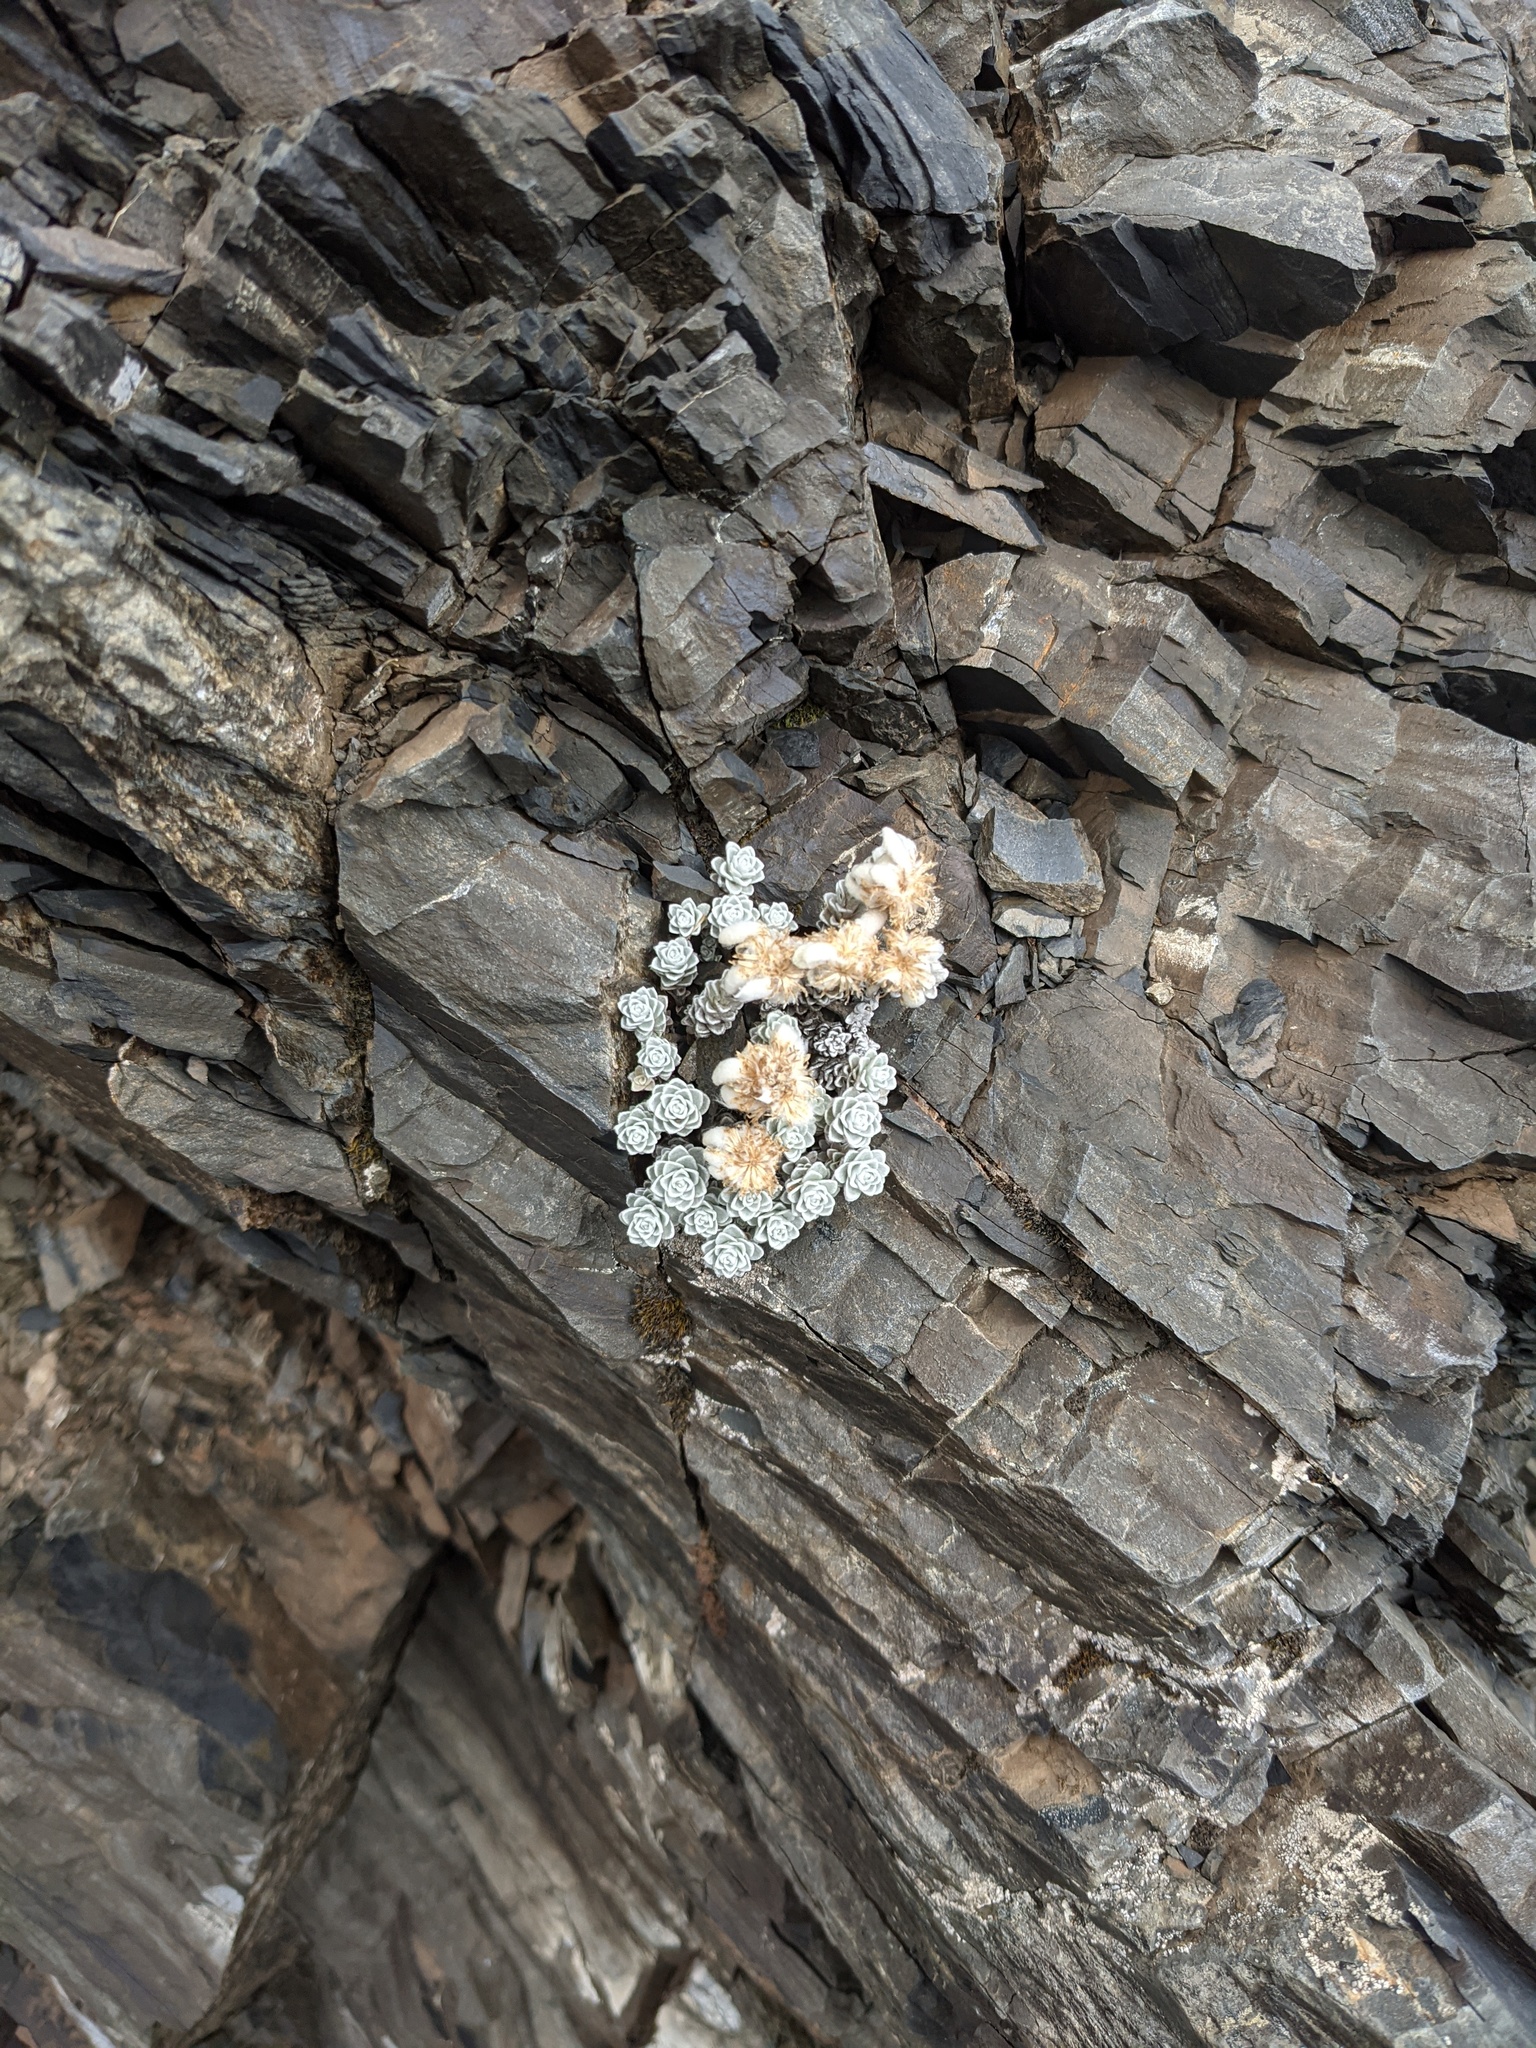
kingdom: Plantae
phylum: Tracheophyta
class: Magnoliopsida
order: Asterales
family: Asteraceae
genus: Leucogenes
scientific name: Leucogenes grandiceps
